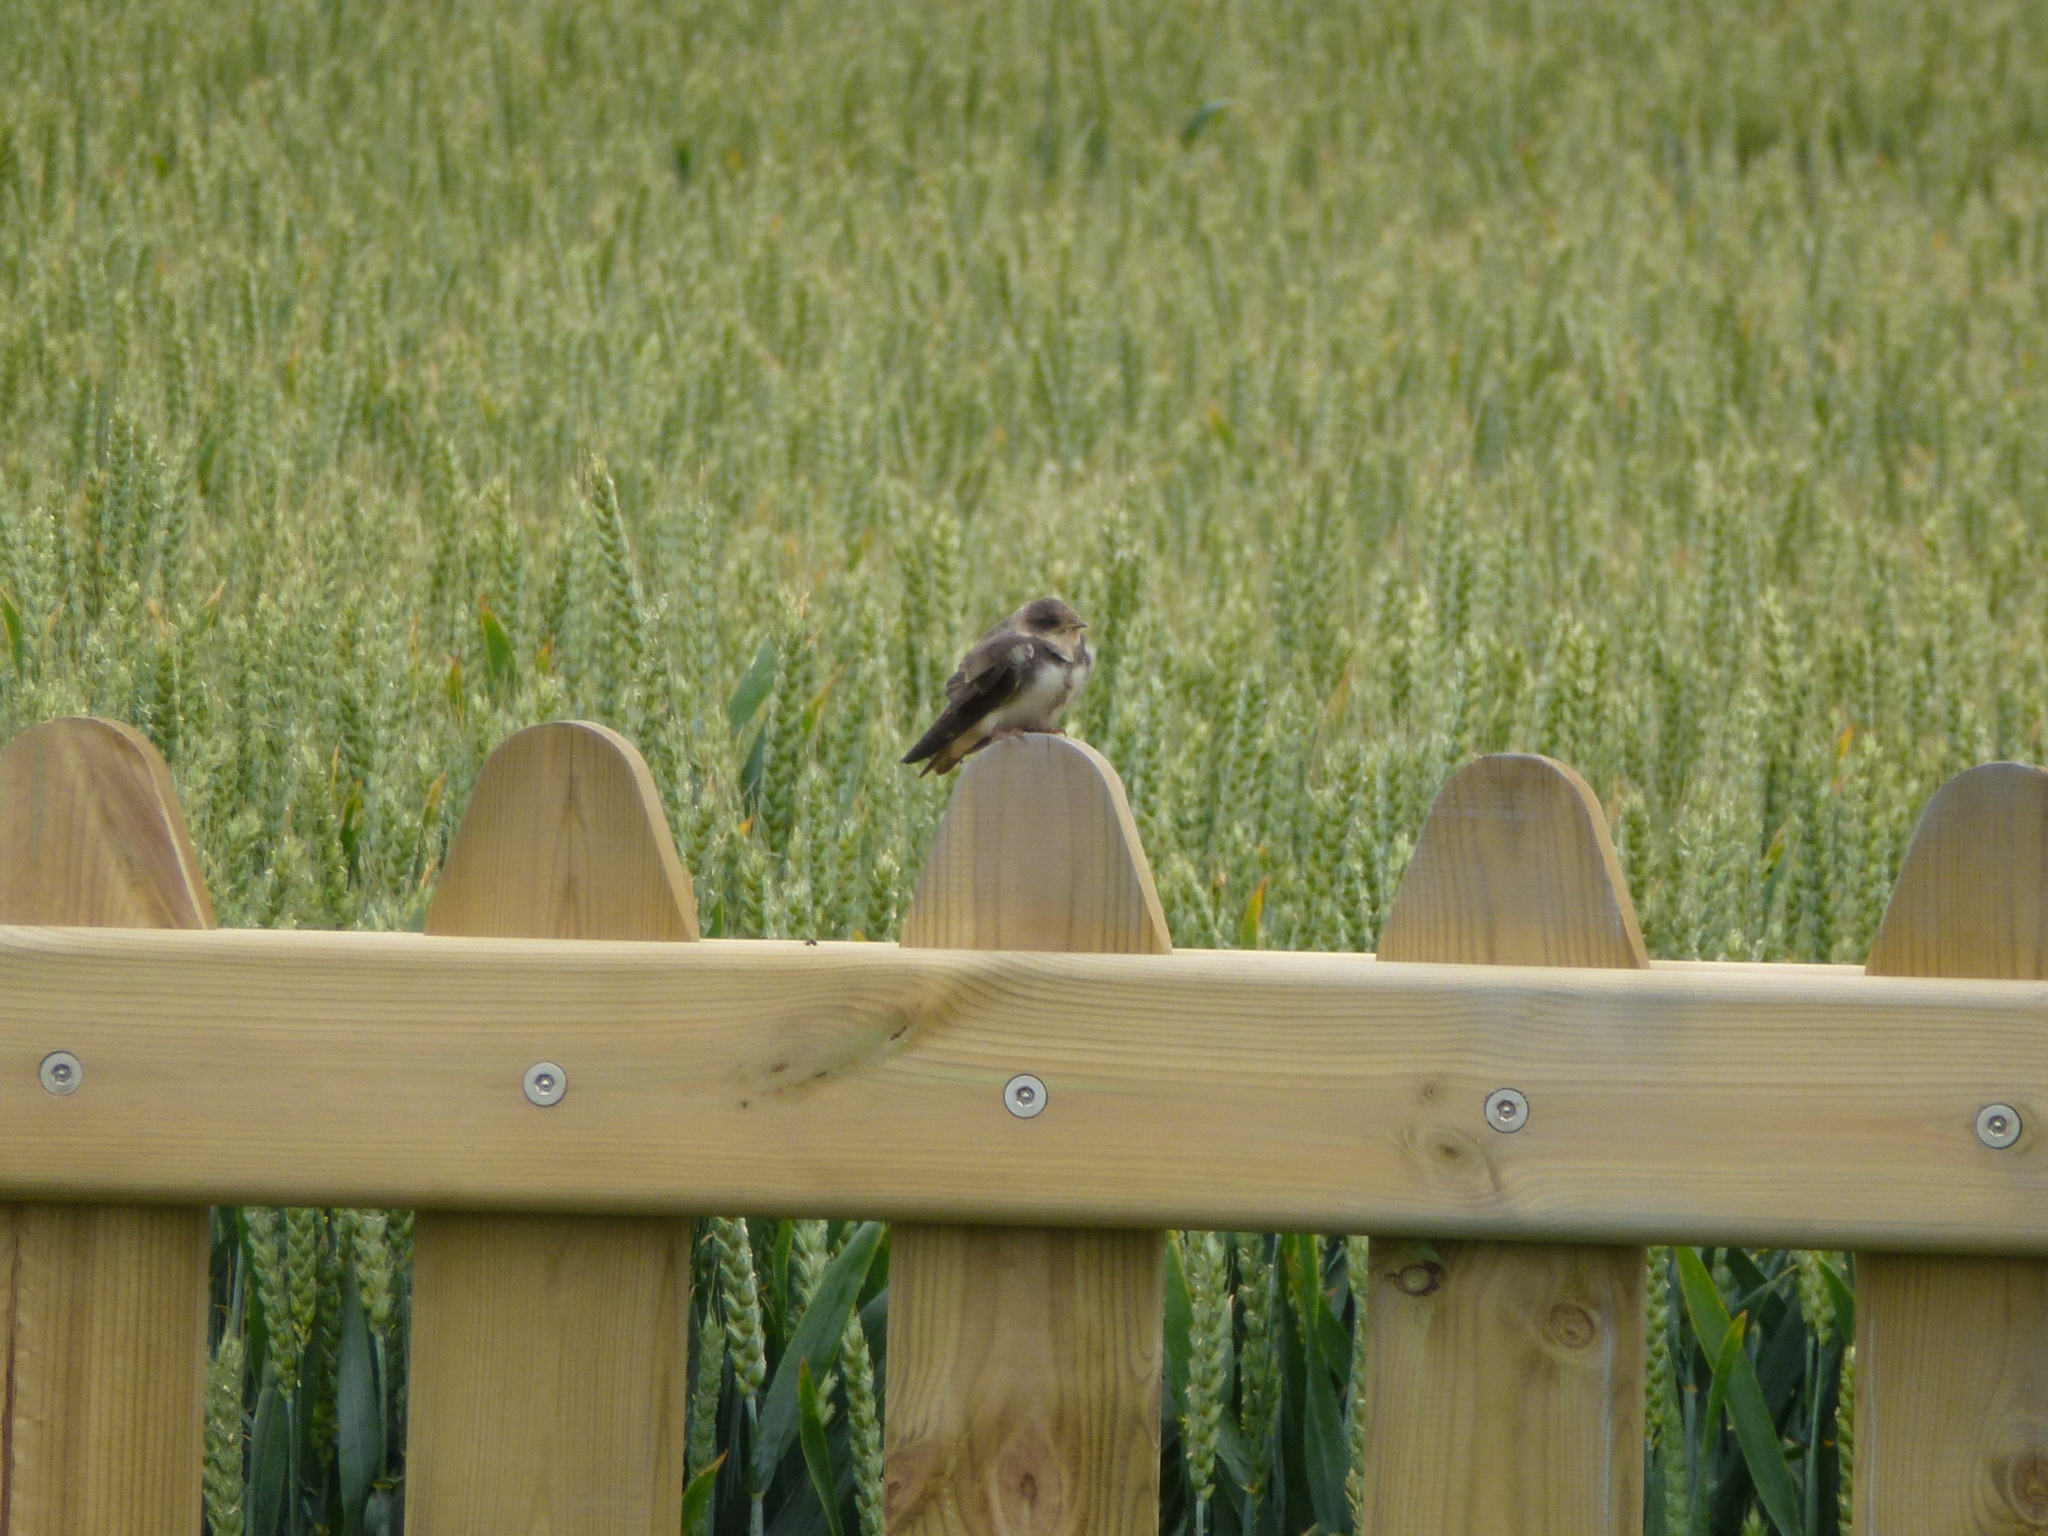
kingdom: Animalia
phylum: Chordata
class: Aves
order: Passeriformes
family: Hirundinidae
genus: Riparia
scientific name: Riparia riparia
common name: Sand martin
